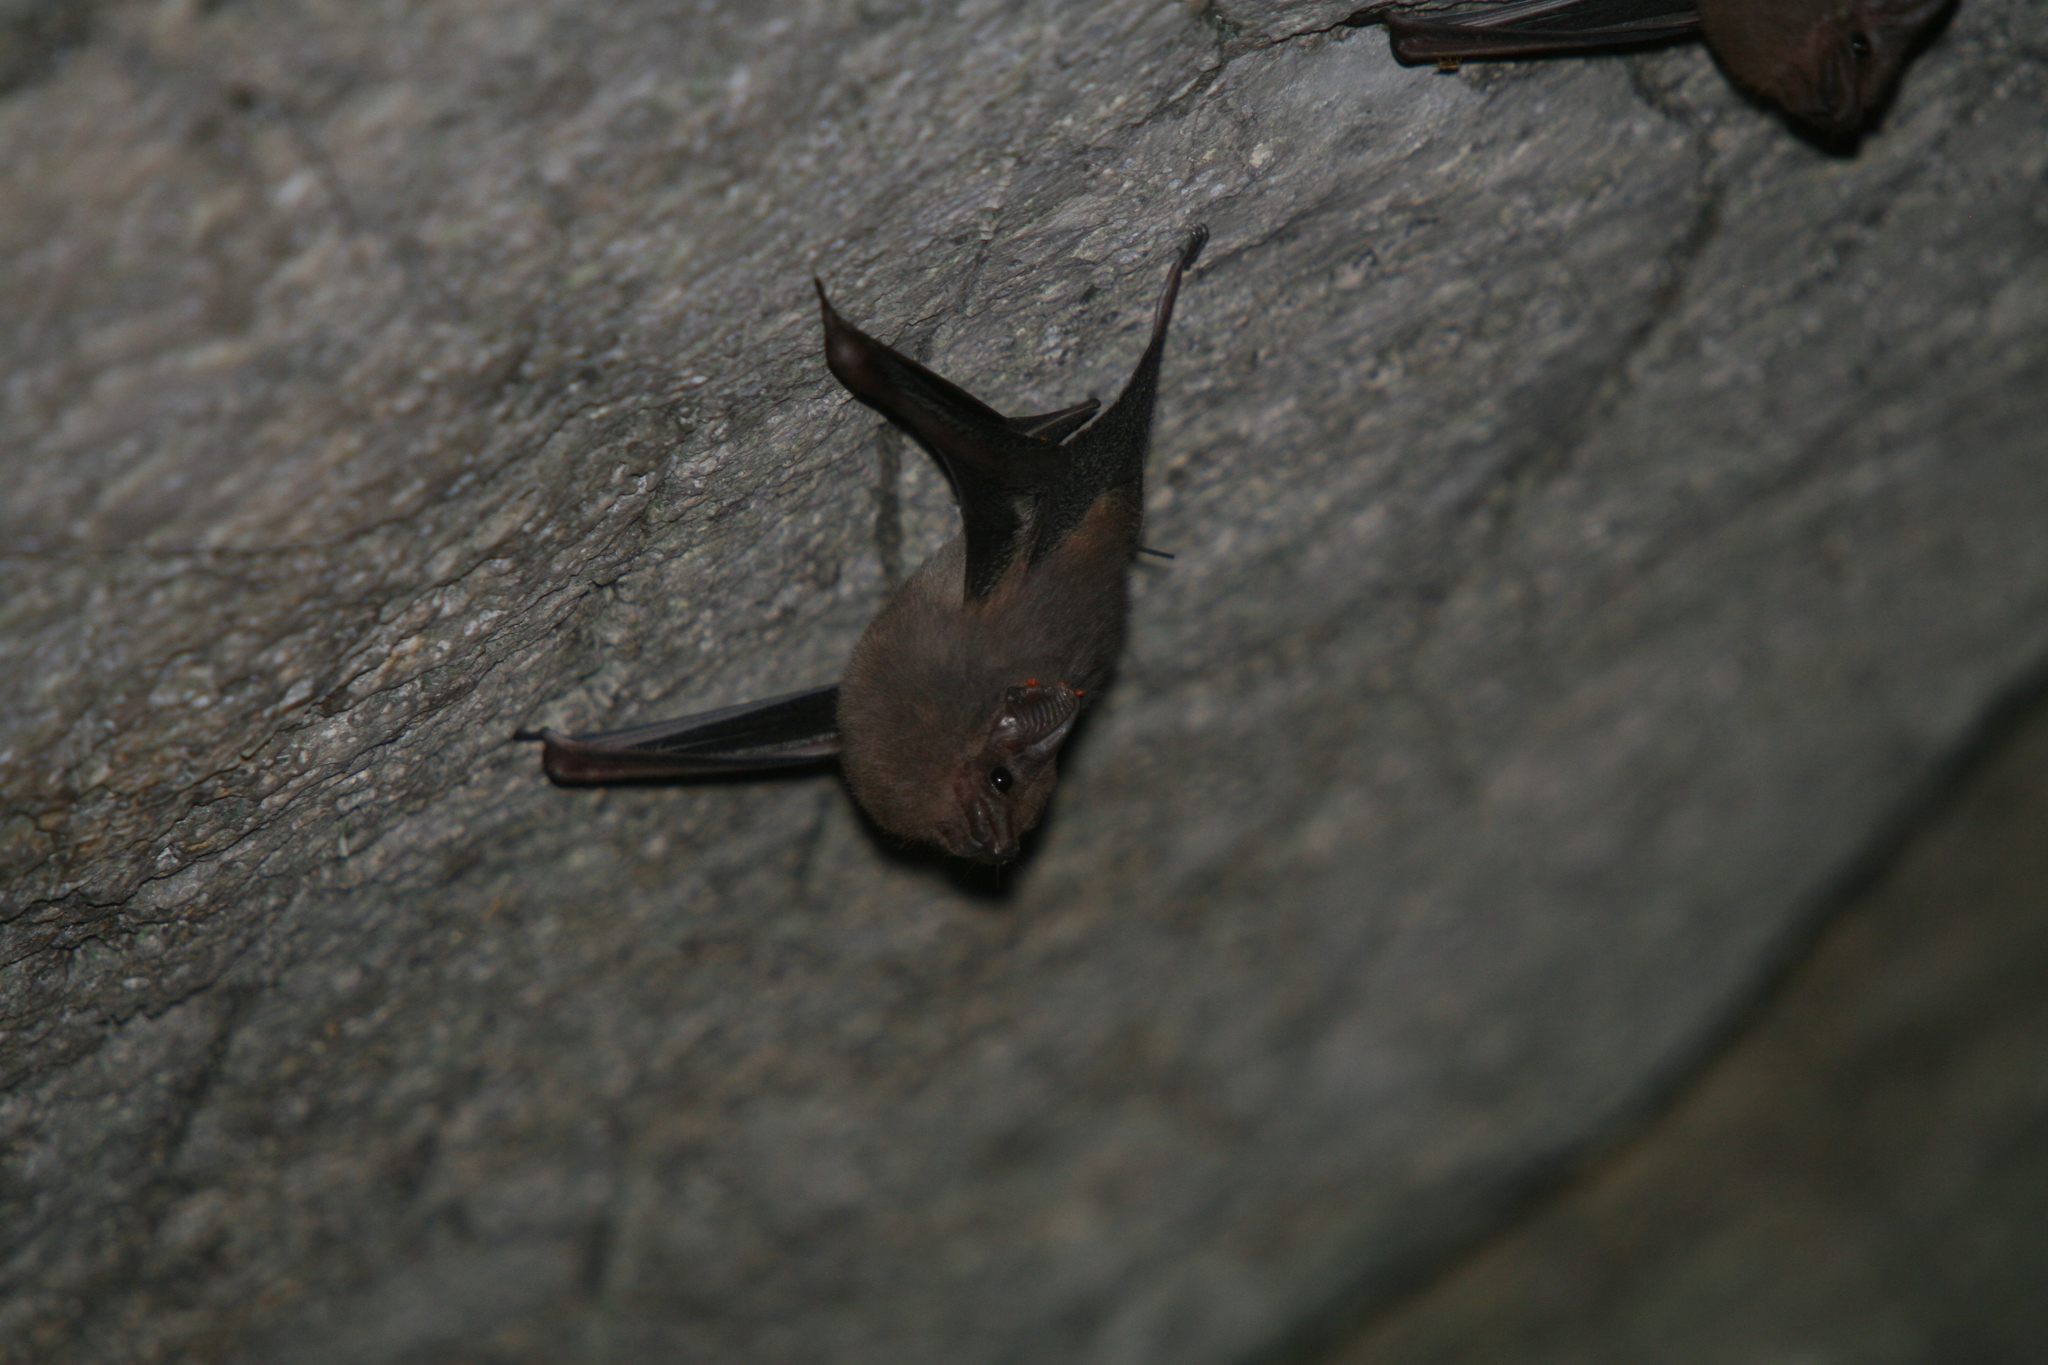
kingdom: Animalia
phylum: Chordata
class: Mammalia
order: Chiroptera
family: Emballonuridae
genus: Balantiopteryx
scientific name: Balantiopteryx plicata
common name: Gray sac-winged bat
